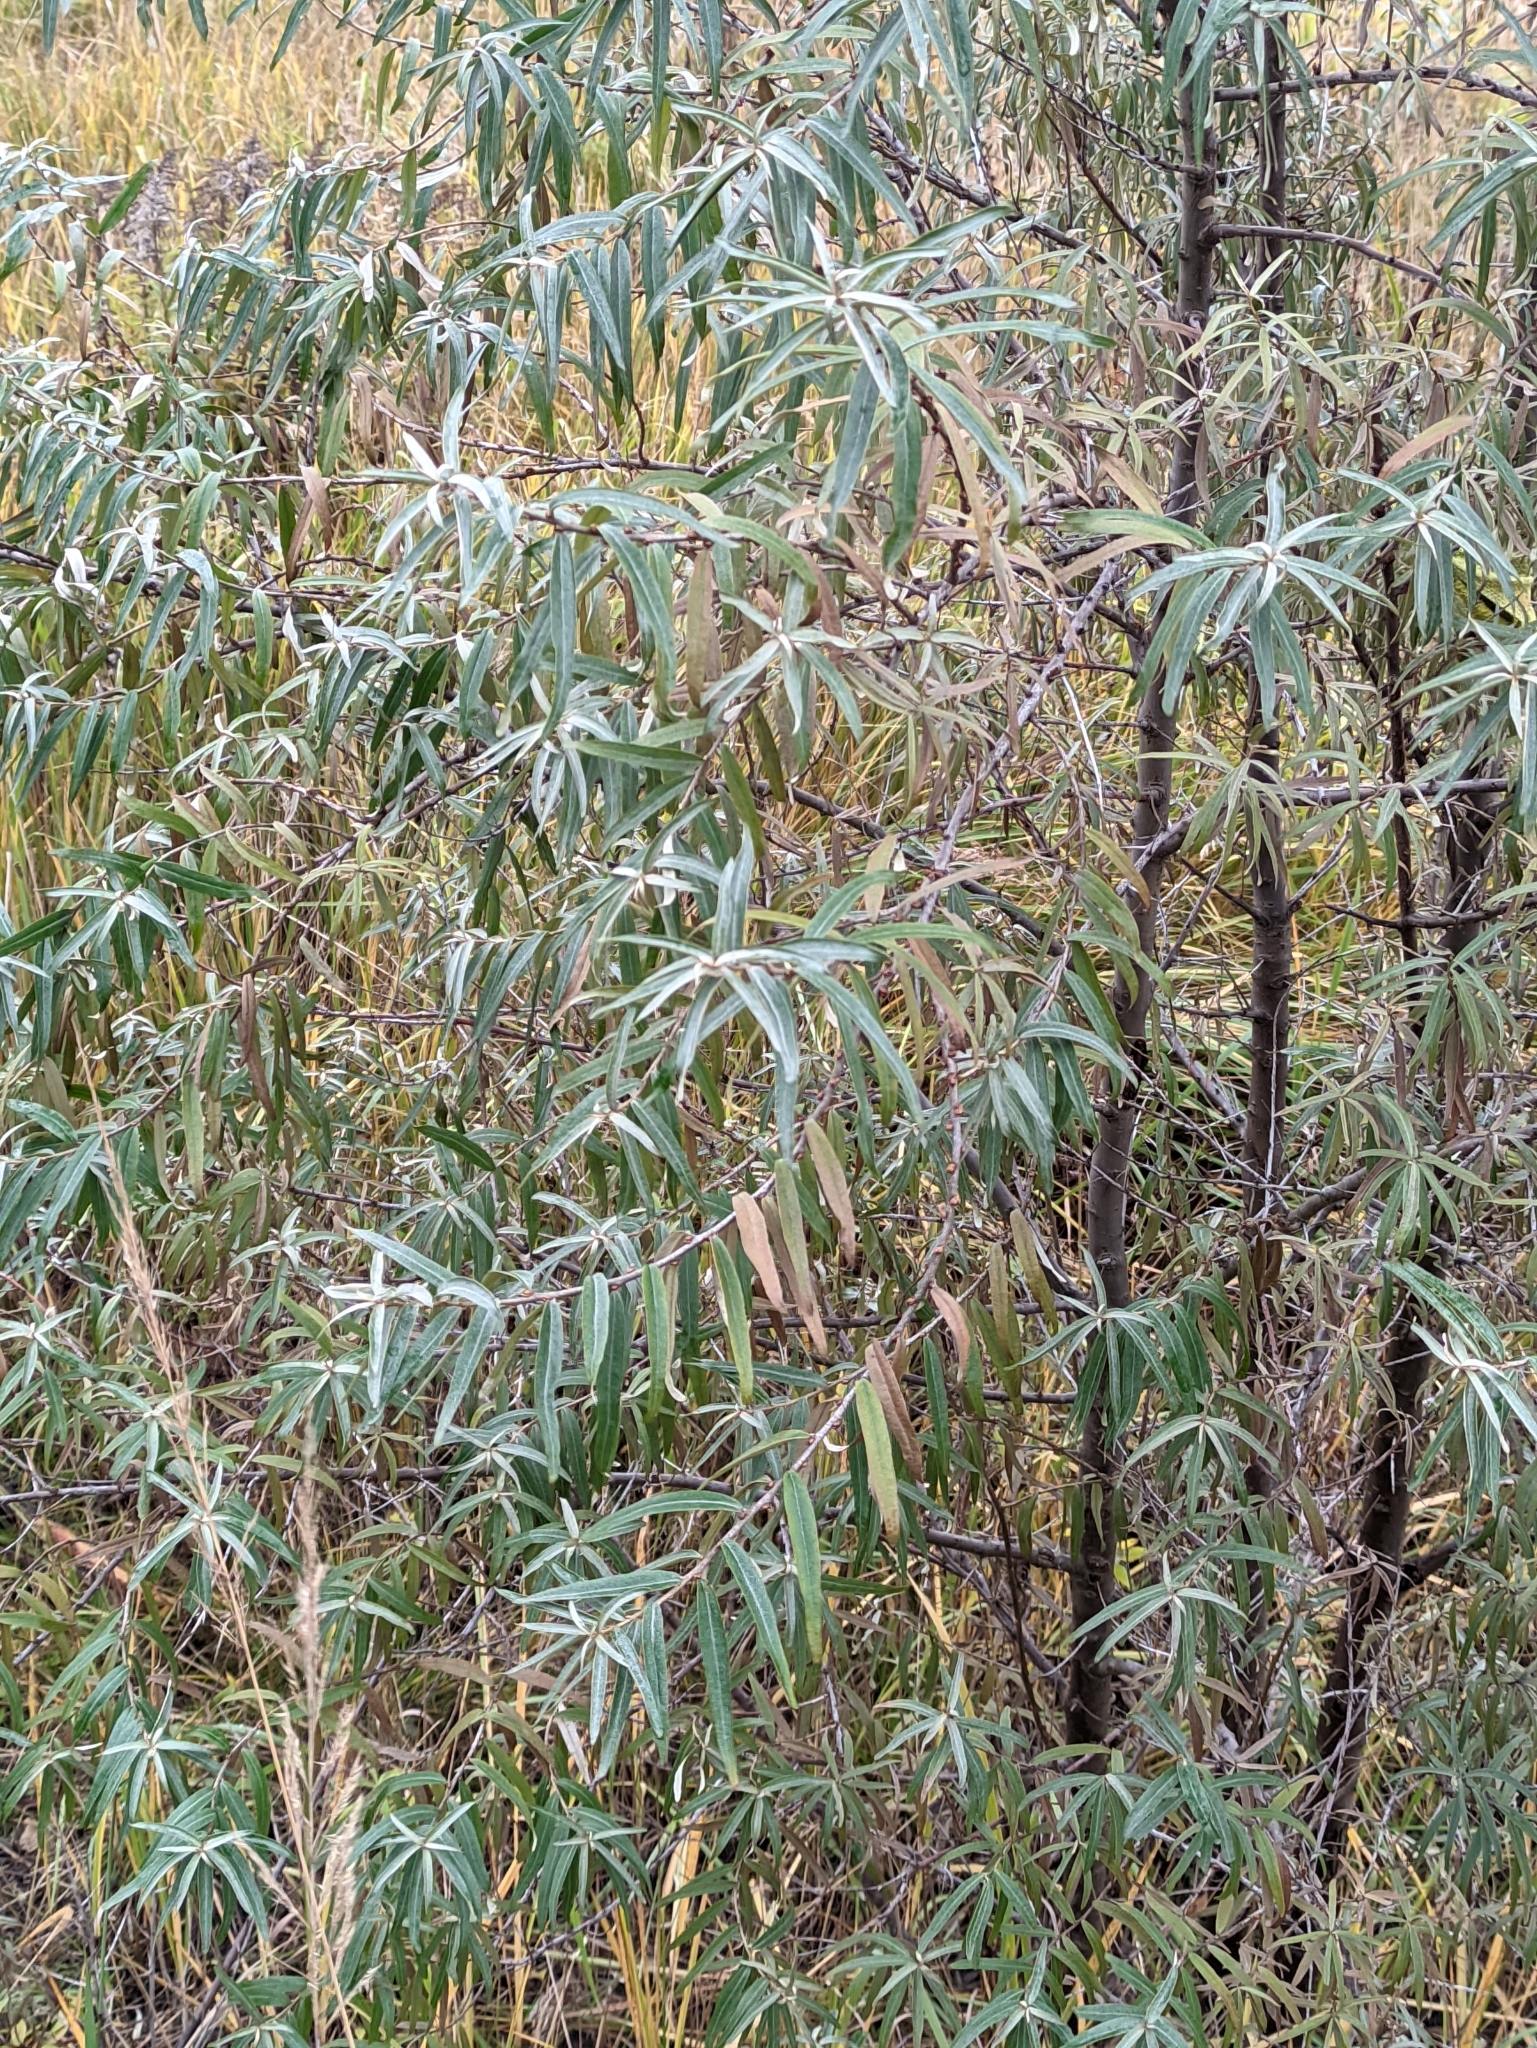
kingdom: Plantae
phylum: Tracheophyta
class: Magnoliopsida
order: Rosales
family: Elaeagnaceae
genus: Hippophae
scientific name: Hippophae rhamnoides
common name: Sea-buckthorn
